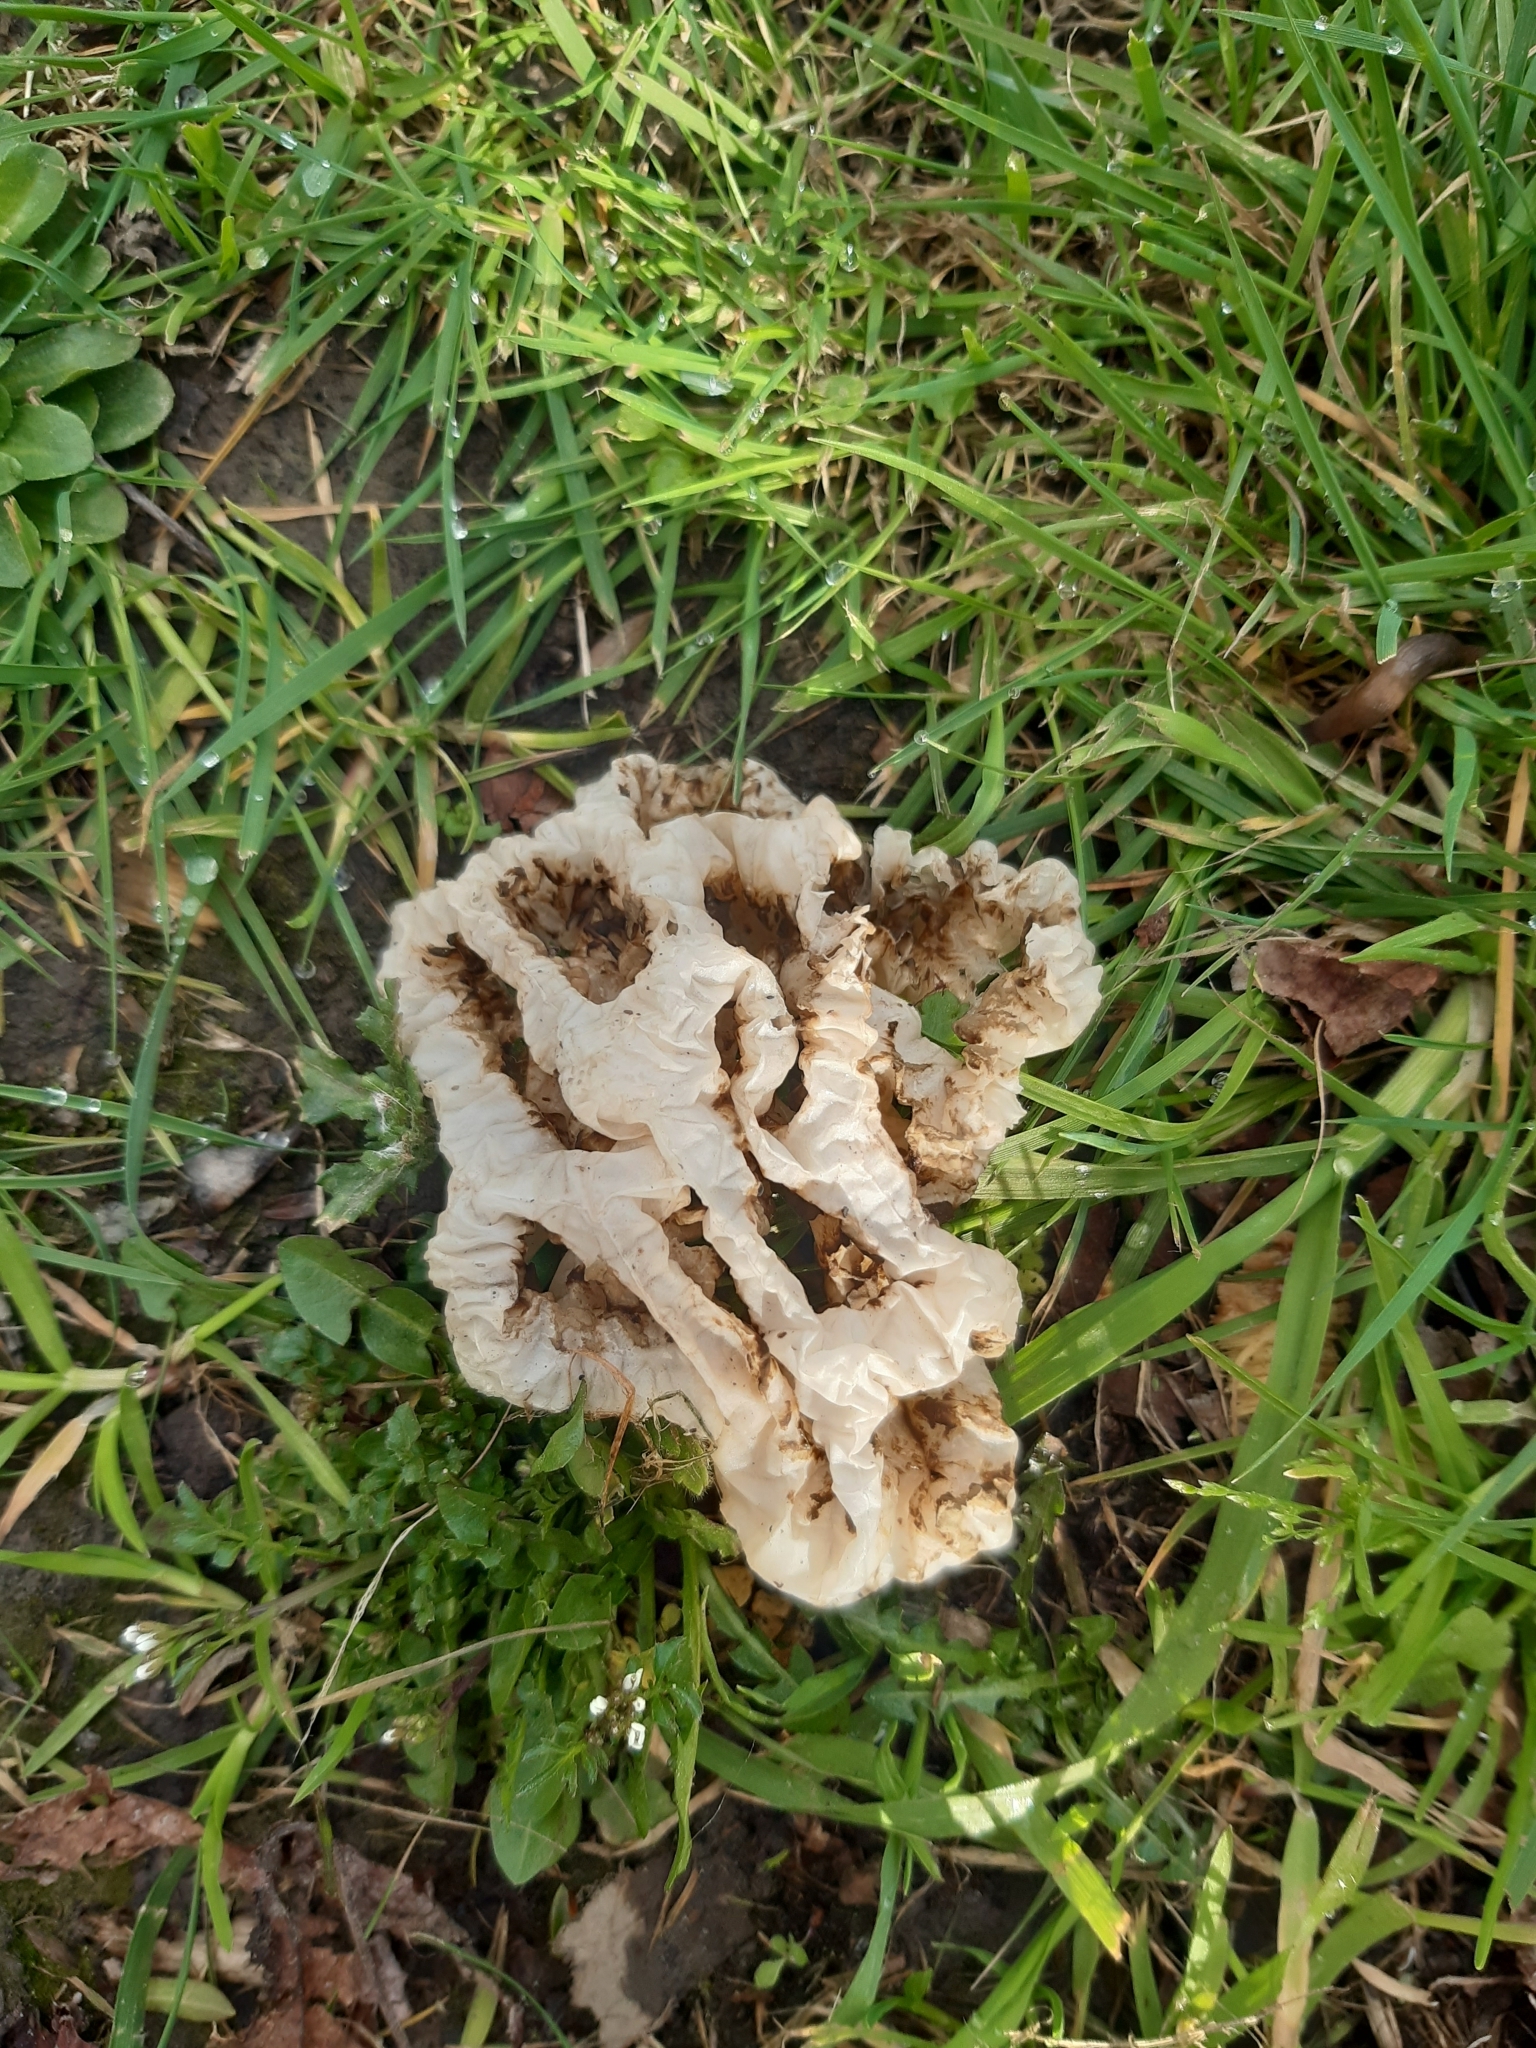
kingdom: Fungi
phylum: Basidiomycota
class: Agaricomycetes
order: Phallales
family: Phallaceae
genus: Ileodictyon
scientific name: Ileodictyon cibarium
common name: Basket fungus
